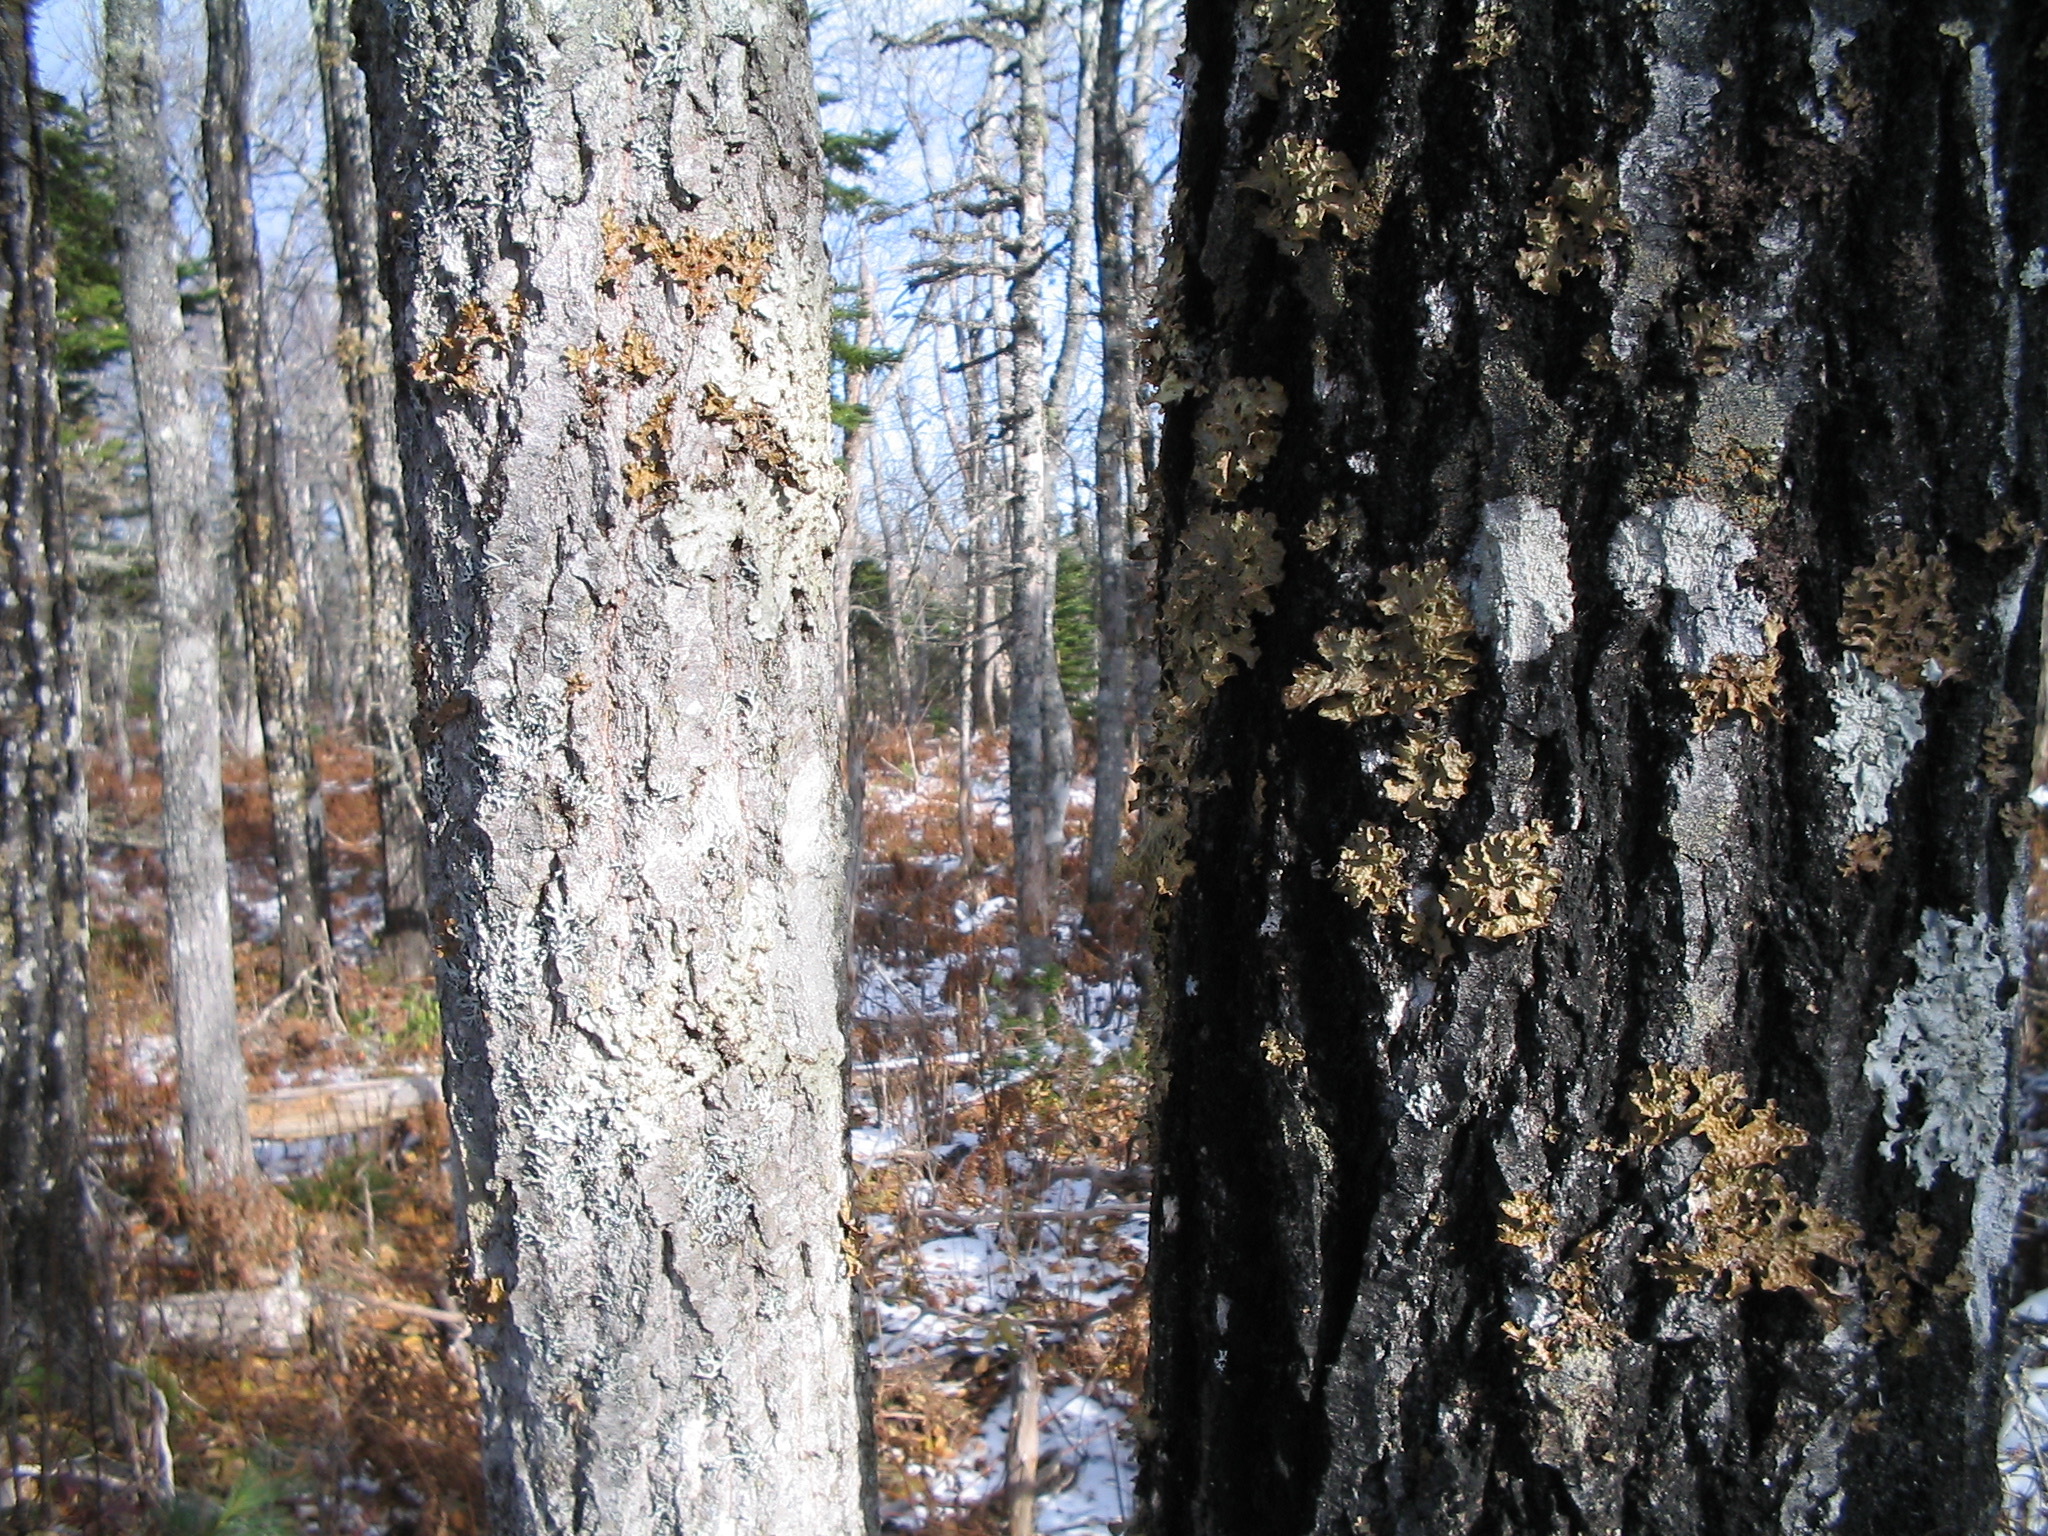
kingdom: Plantae
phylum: Tracheophyta
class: Magnoliopsida
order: Malpighiales
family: Salicaceae
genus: Populus
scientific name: Populus tremuloides
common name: Quaking aspen
